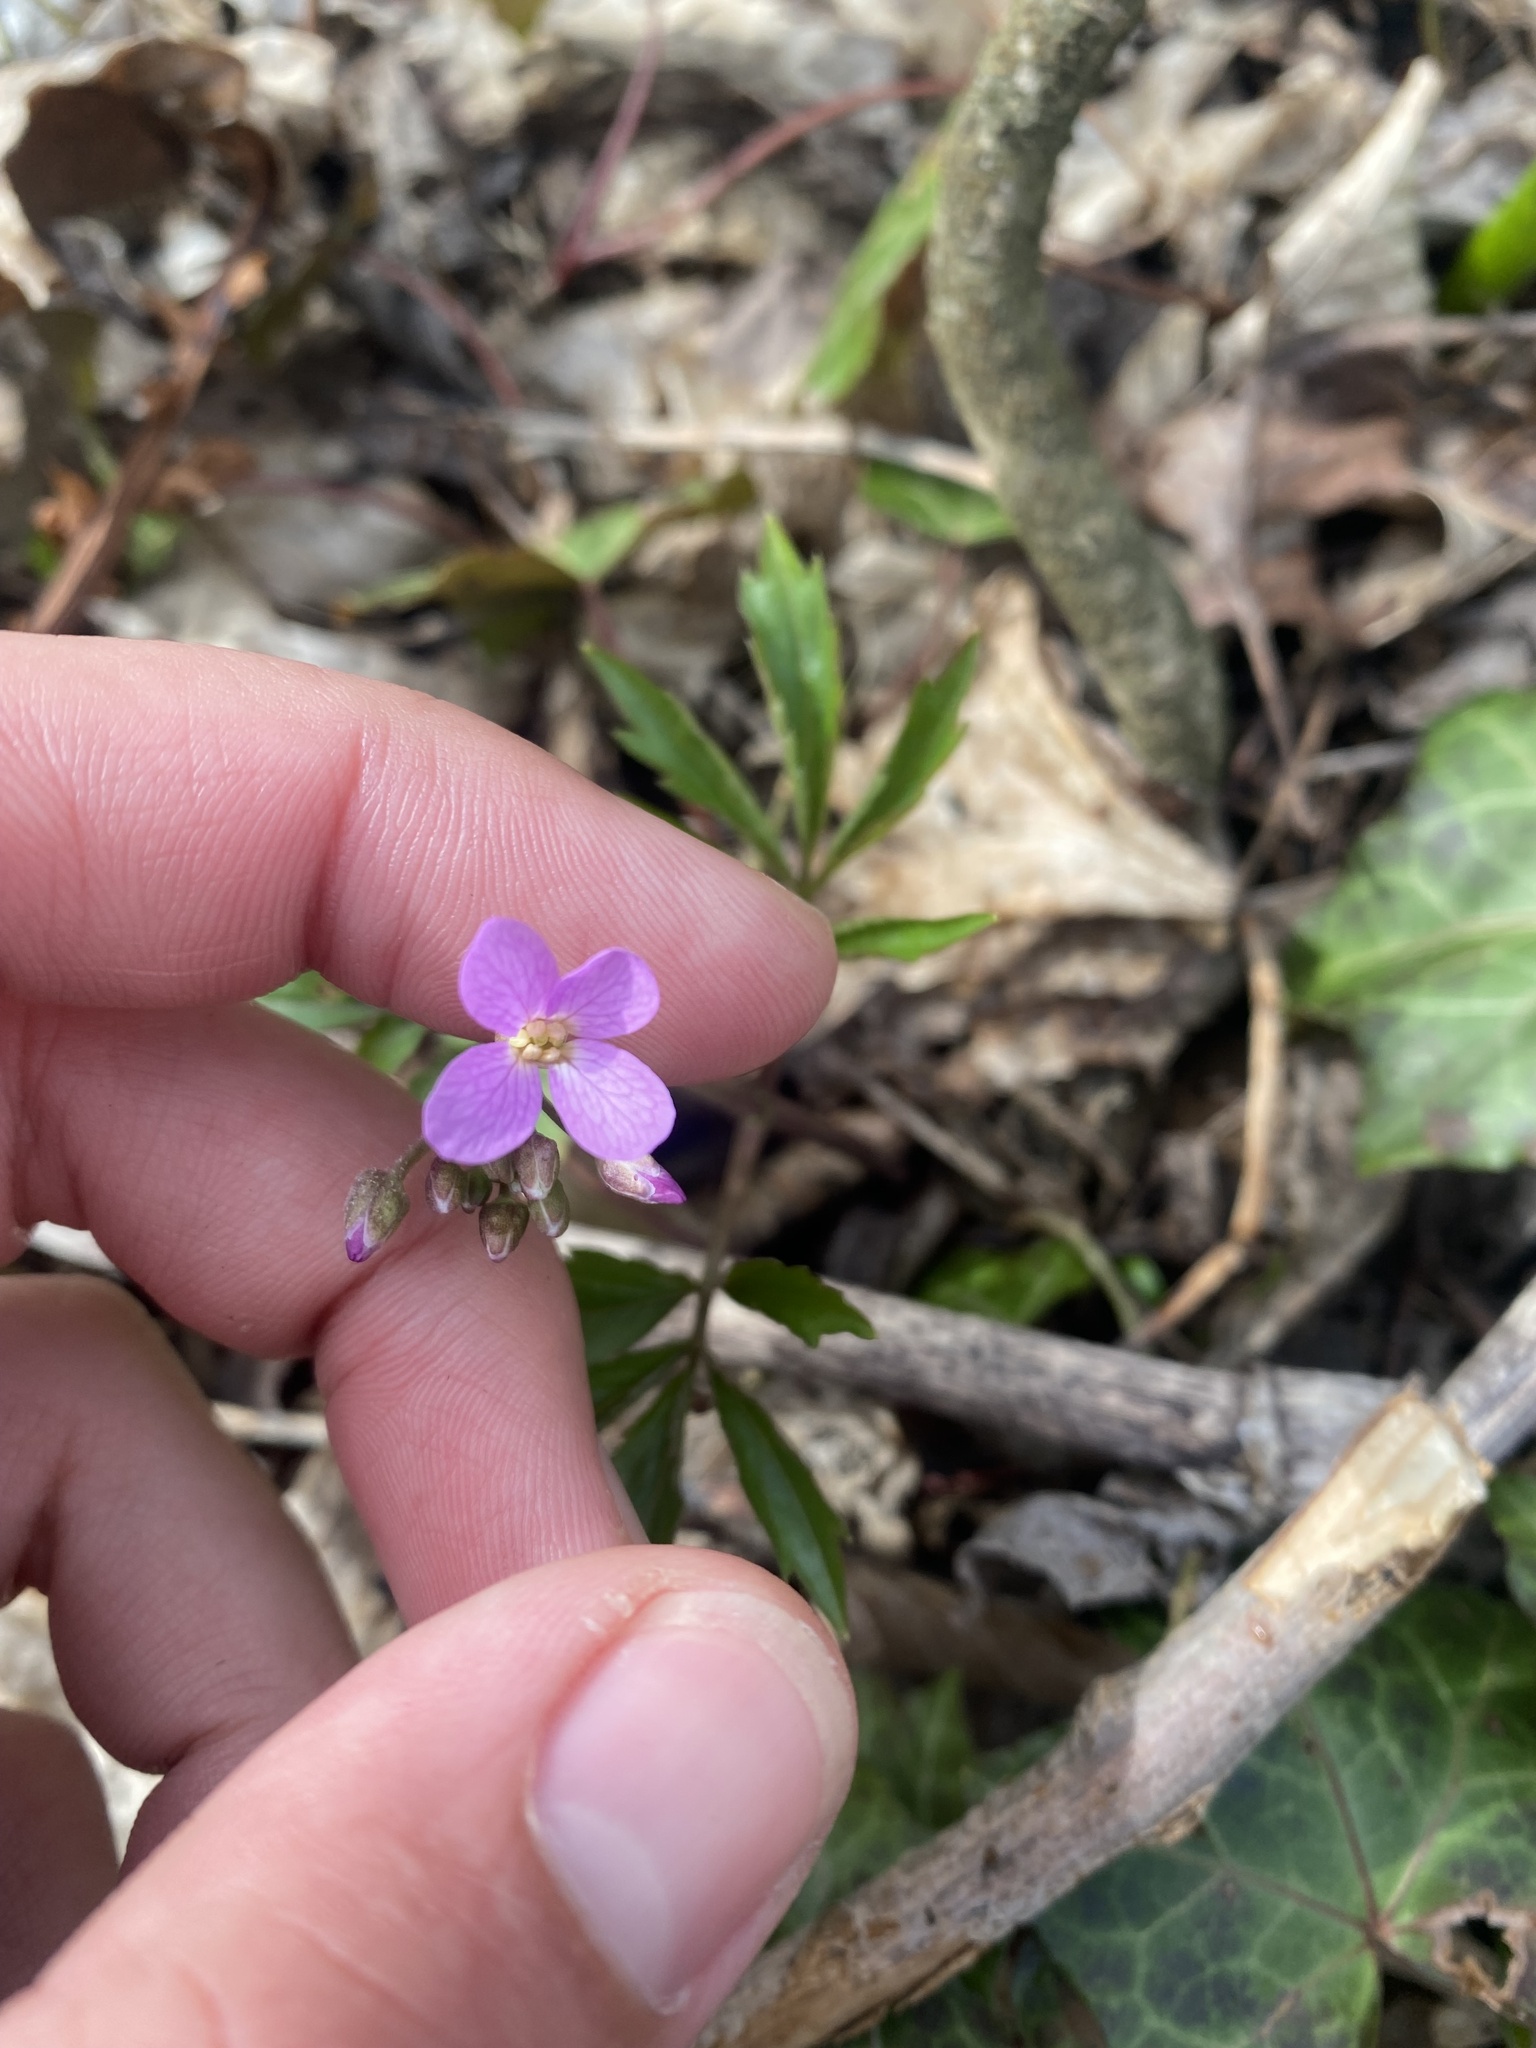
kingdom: Plantae
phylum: Tracheophyta
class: Magnoliopsida
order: Brassicales
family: Brassicaceae
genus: Cardamine
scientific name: Cardamine quinquefolia
